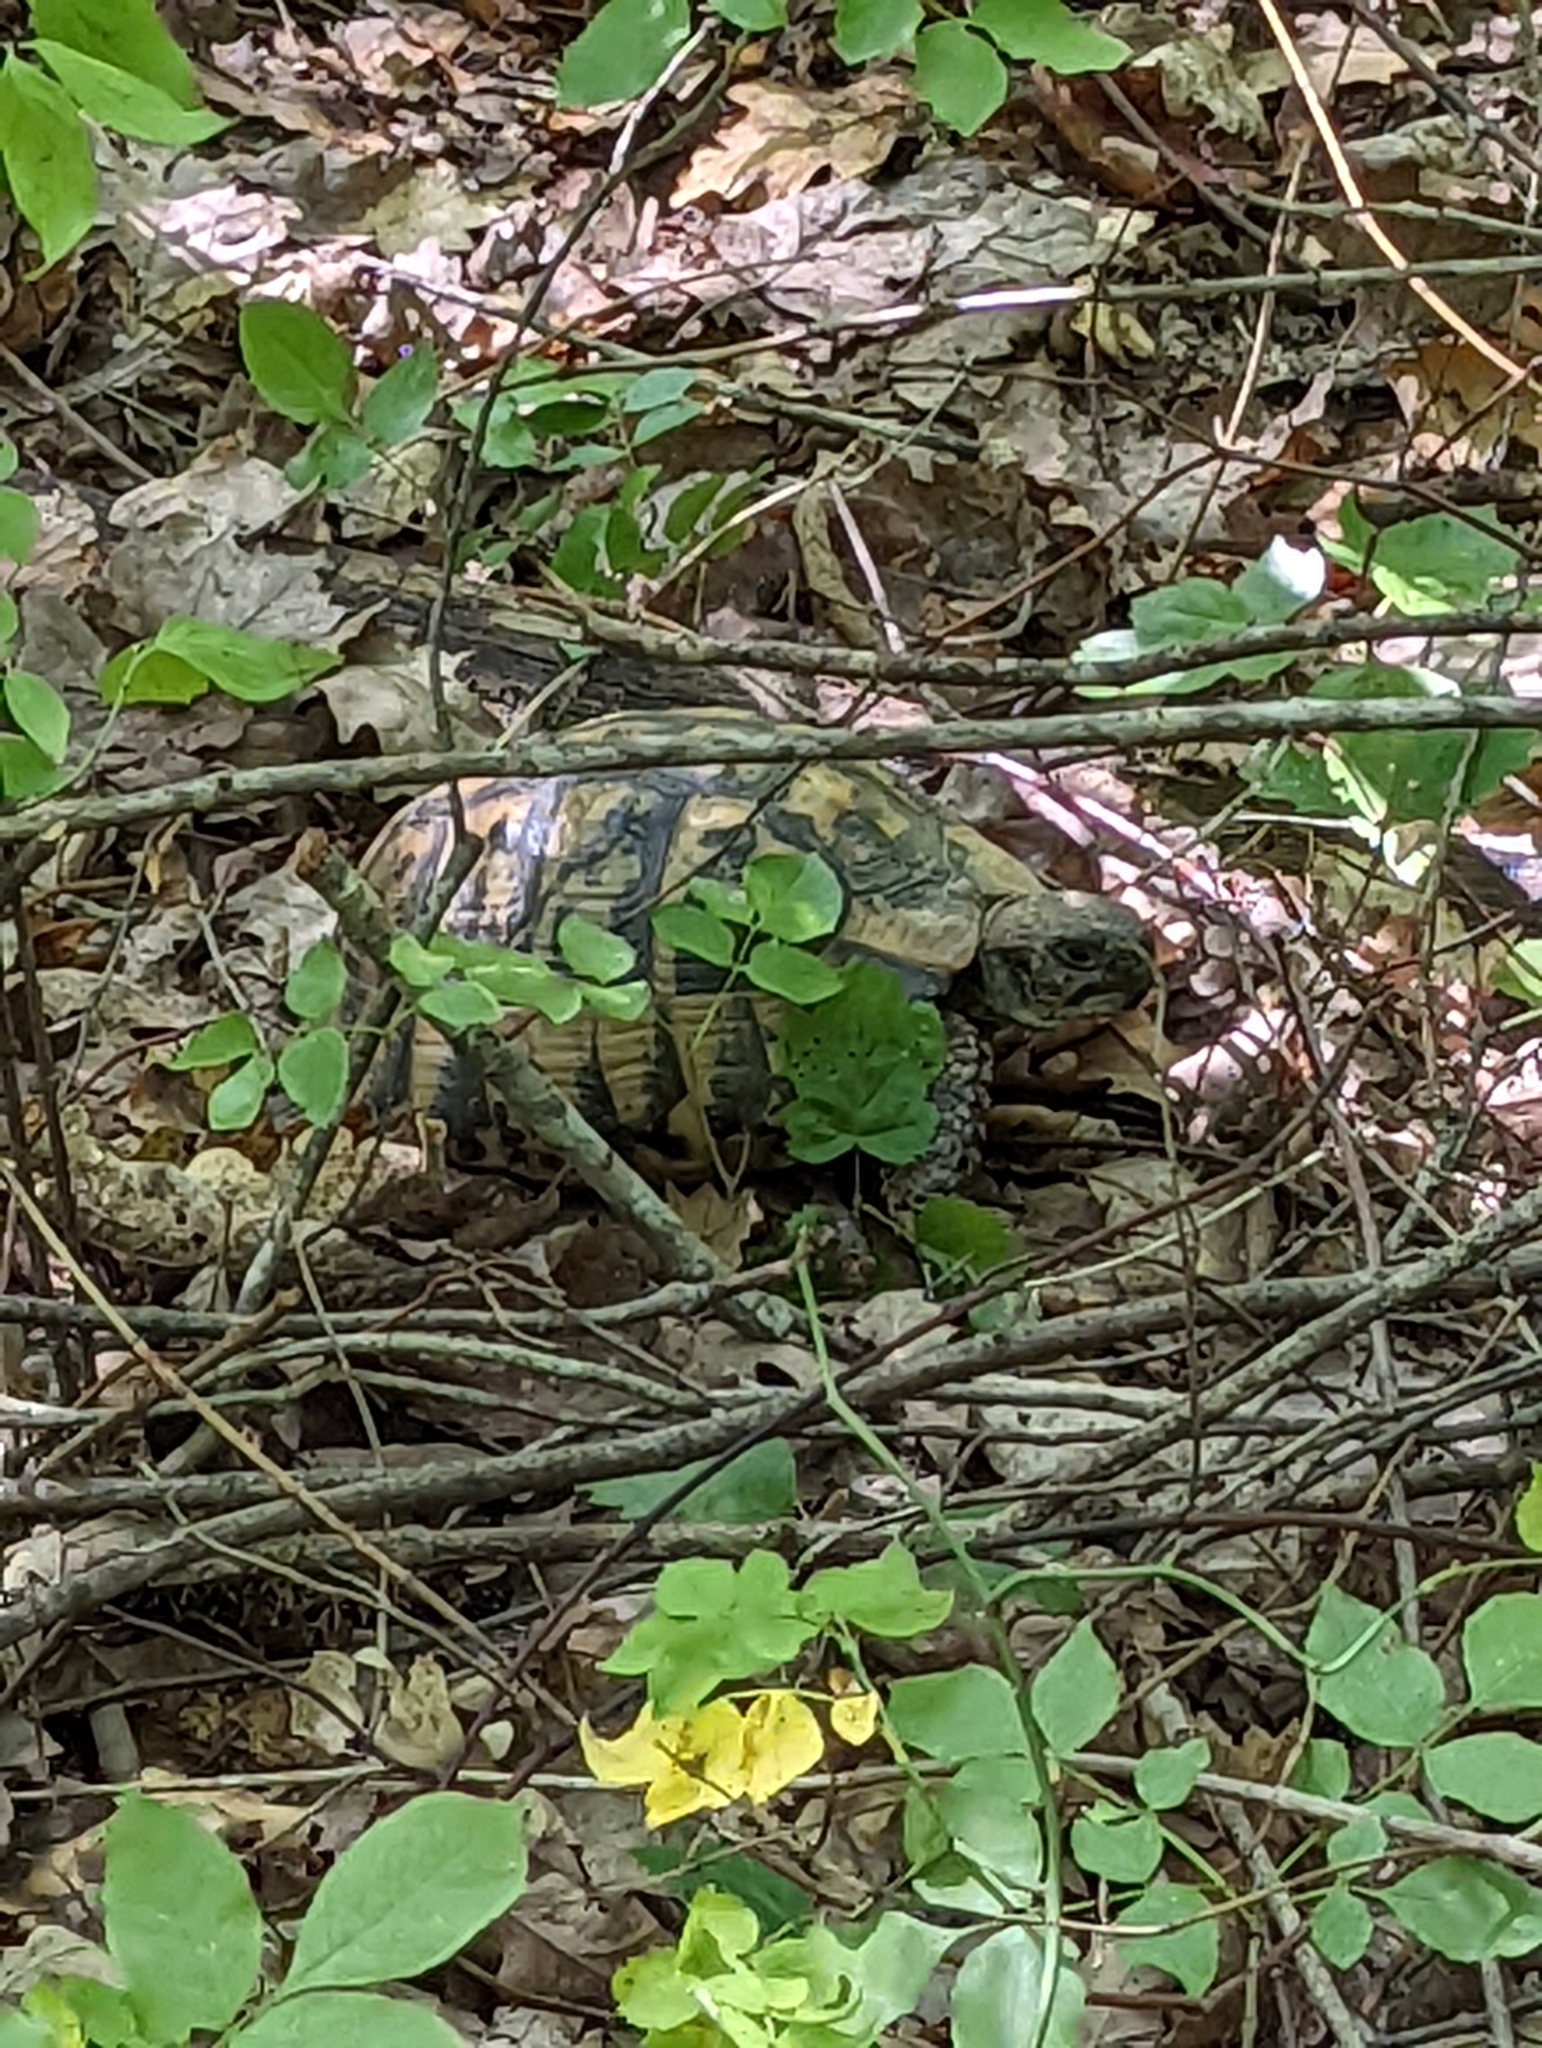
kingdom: Animalia
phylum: Chordata
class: Testudines
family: Testudinidae
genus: Testudo
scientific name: Testudo hermanni
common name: Hermann's tortoise
